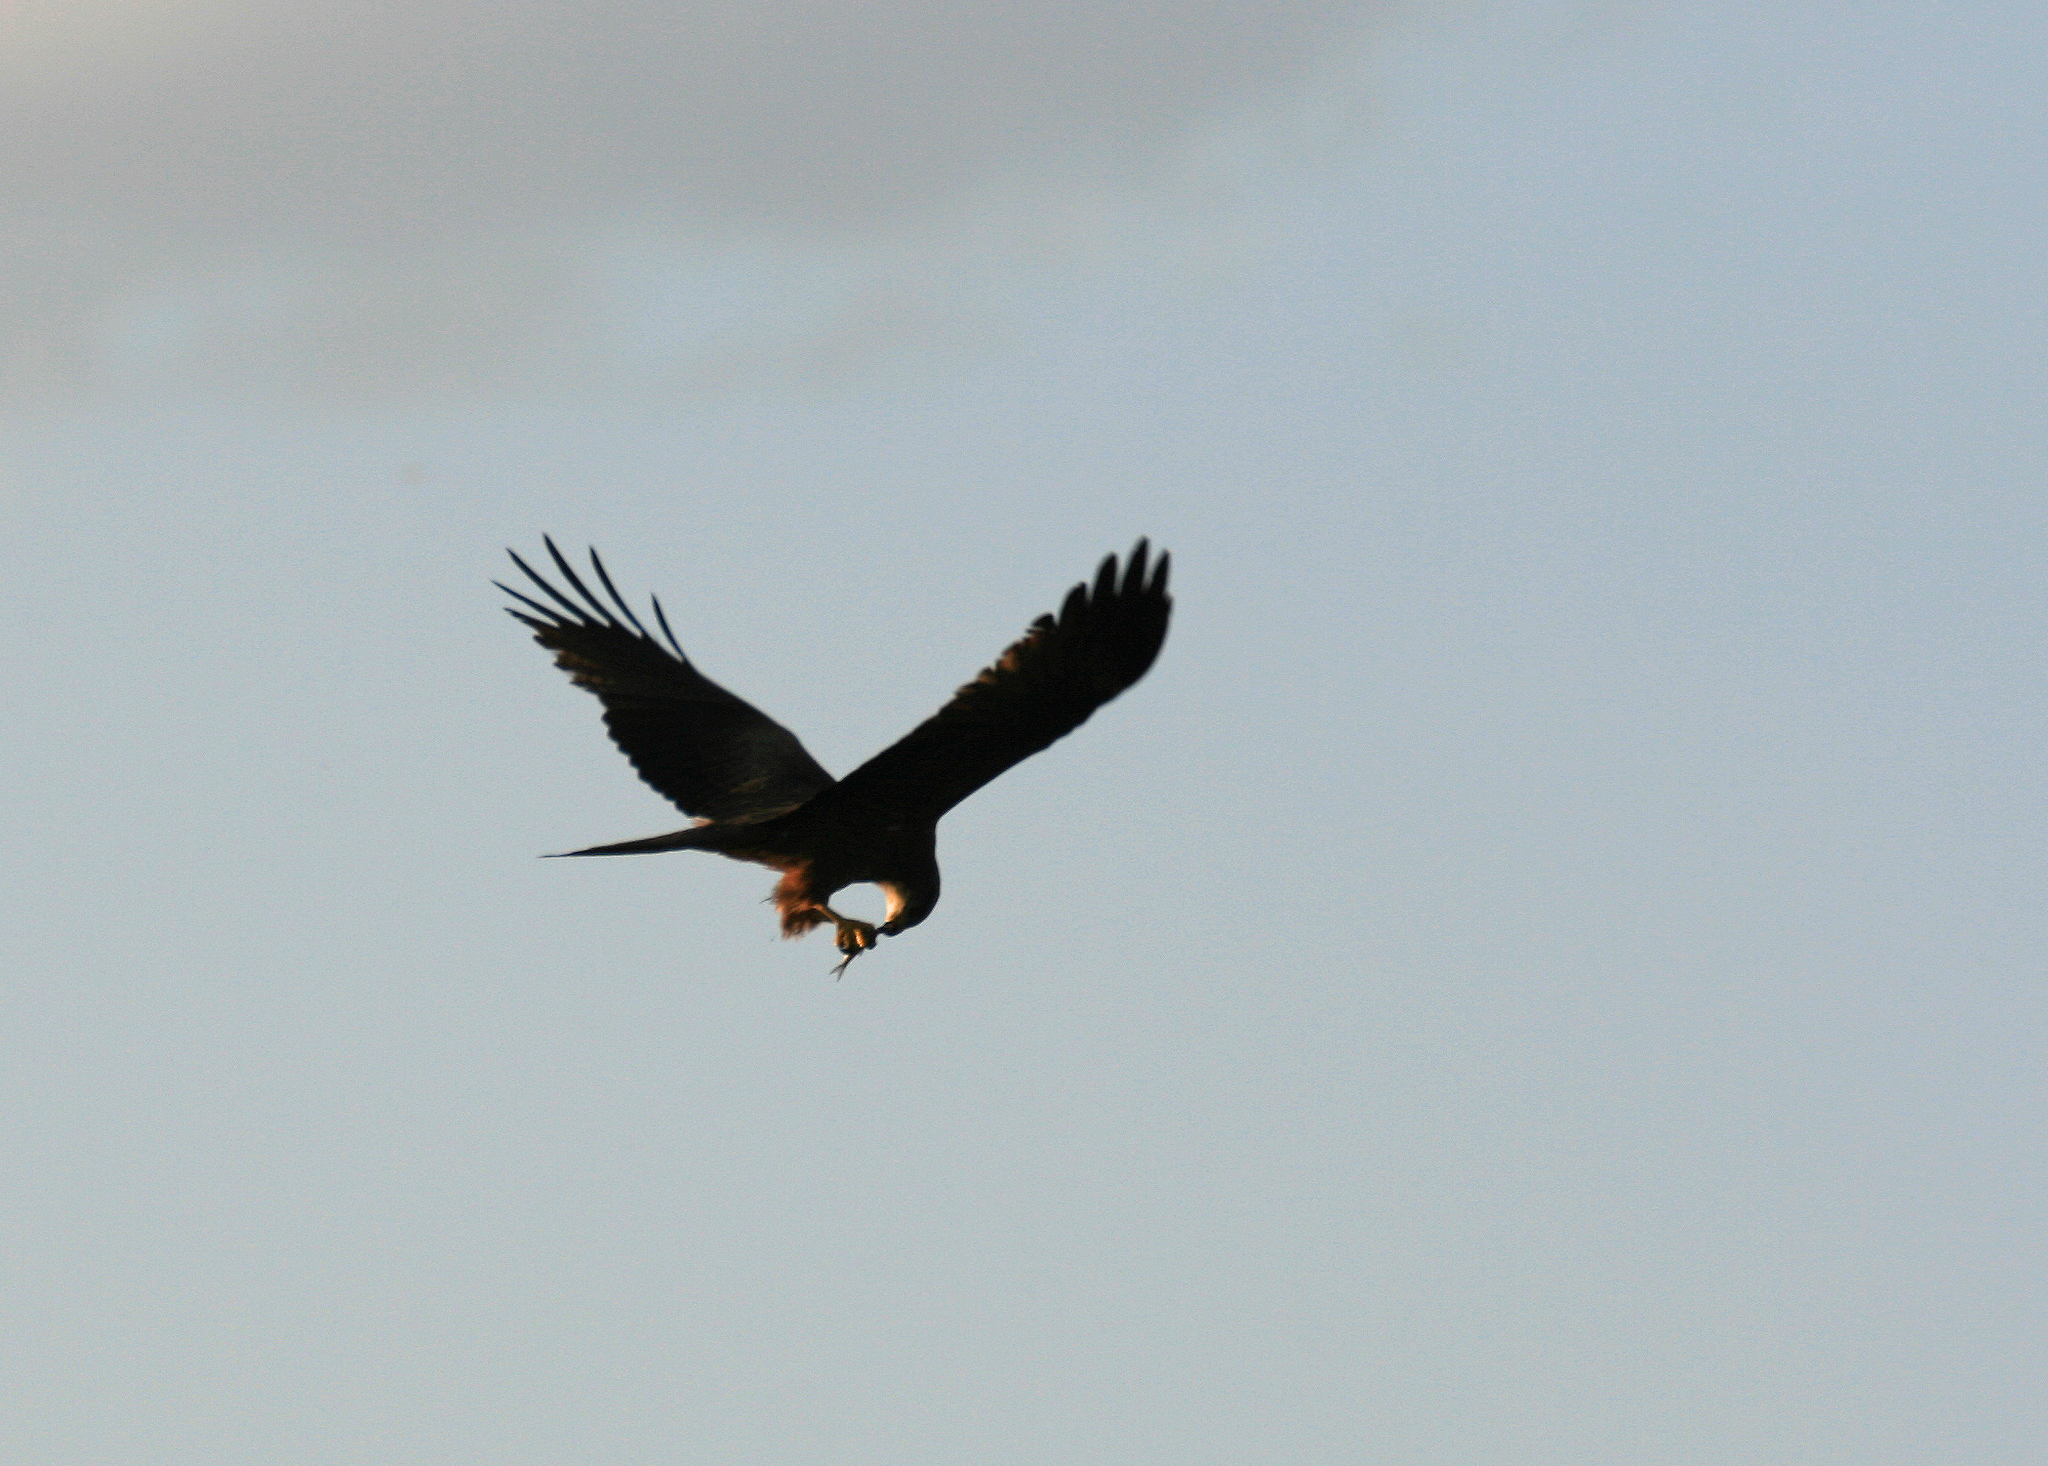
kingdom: Animalia
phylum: Chordata
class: Aves
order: Accipitriformes
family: Accipitridae
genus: Milvus
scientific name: Milvus migrans
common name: Black kite
